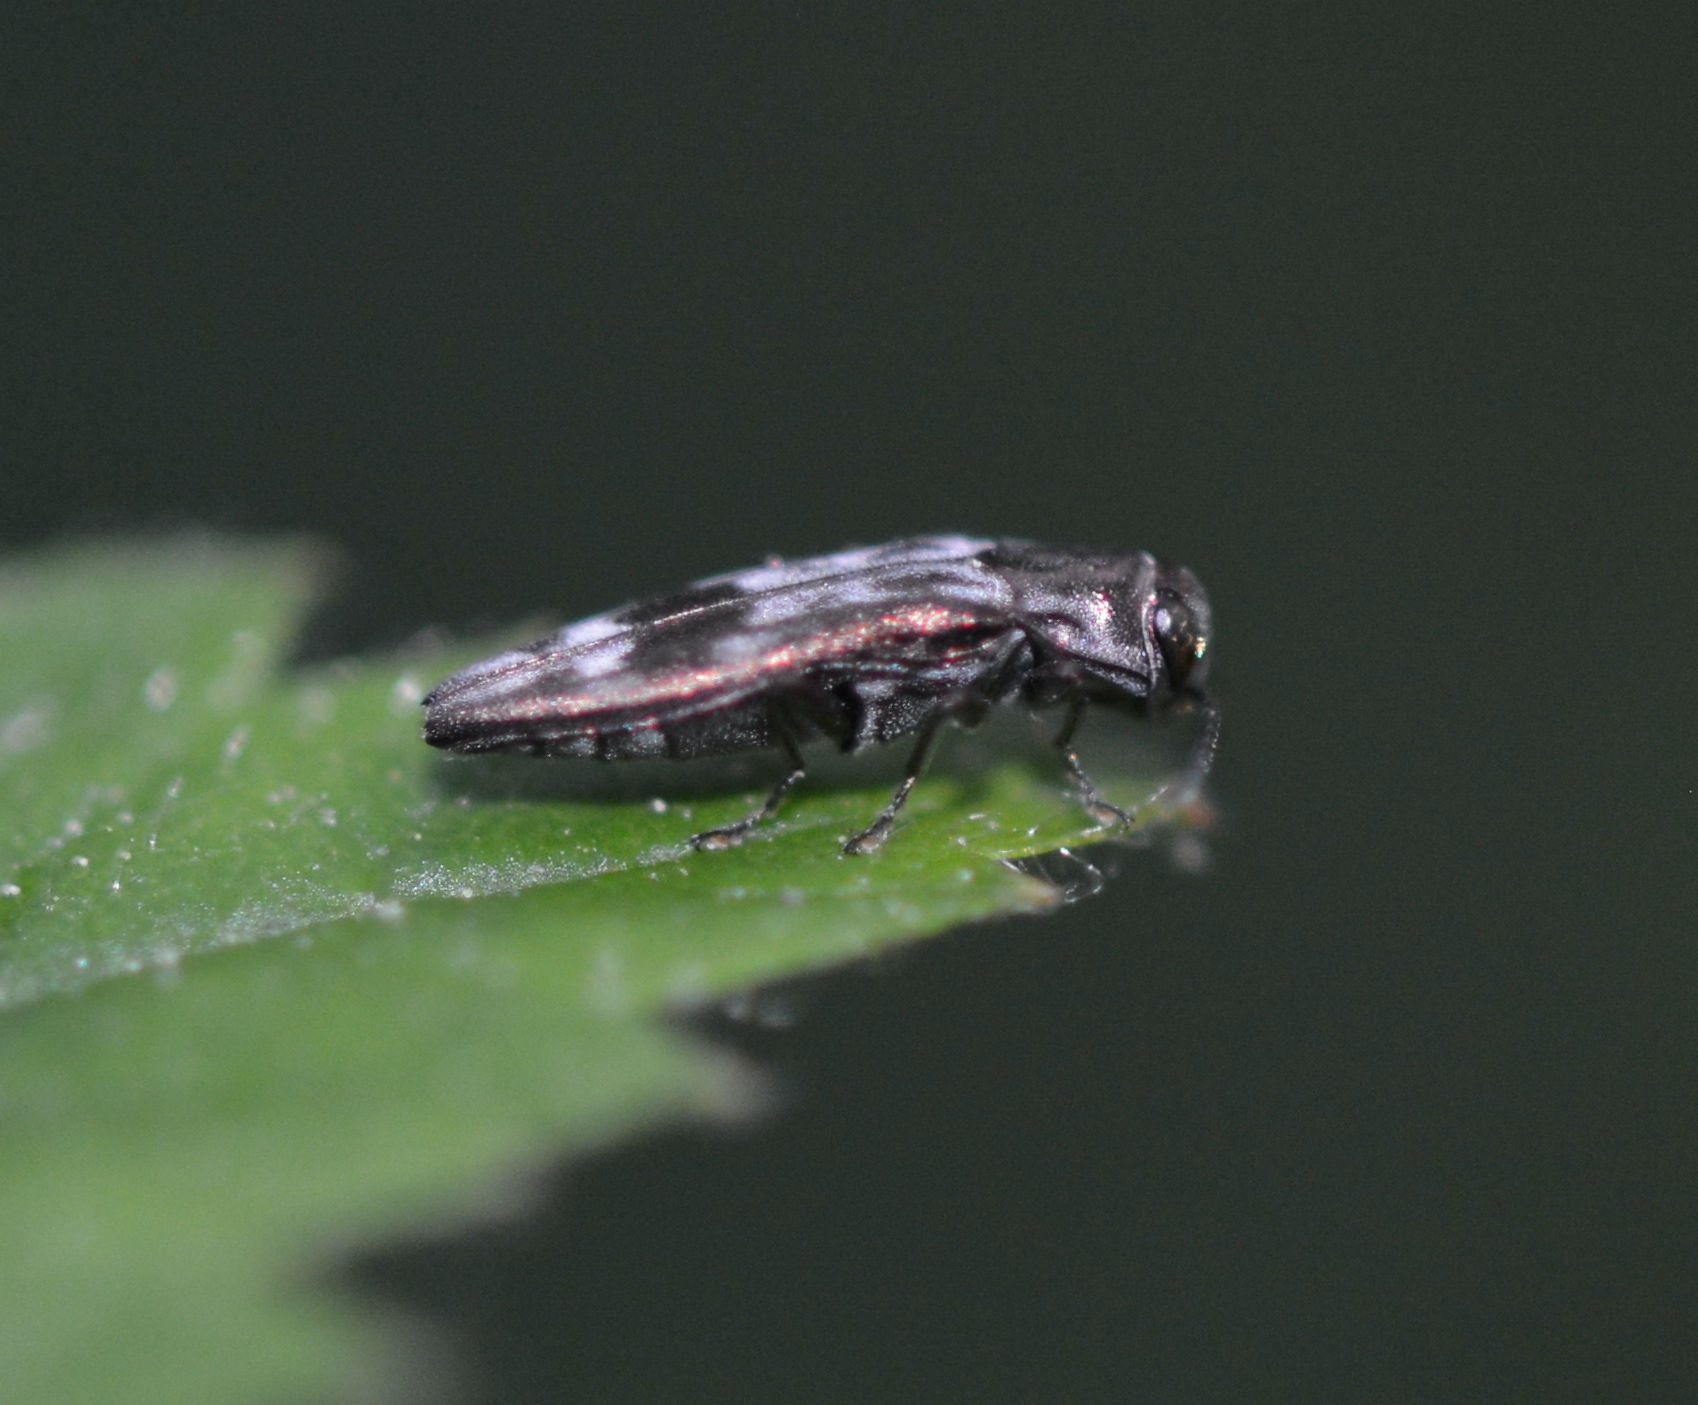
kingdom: Animalia
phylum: Arthropoda
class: Insecta
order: Coleoptera
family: Buprestidae
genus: Agrilus
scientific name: Agrilus lecontei
